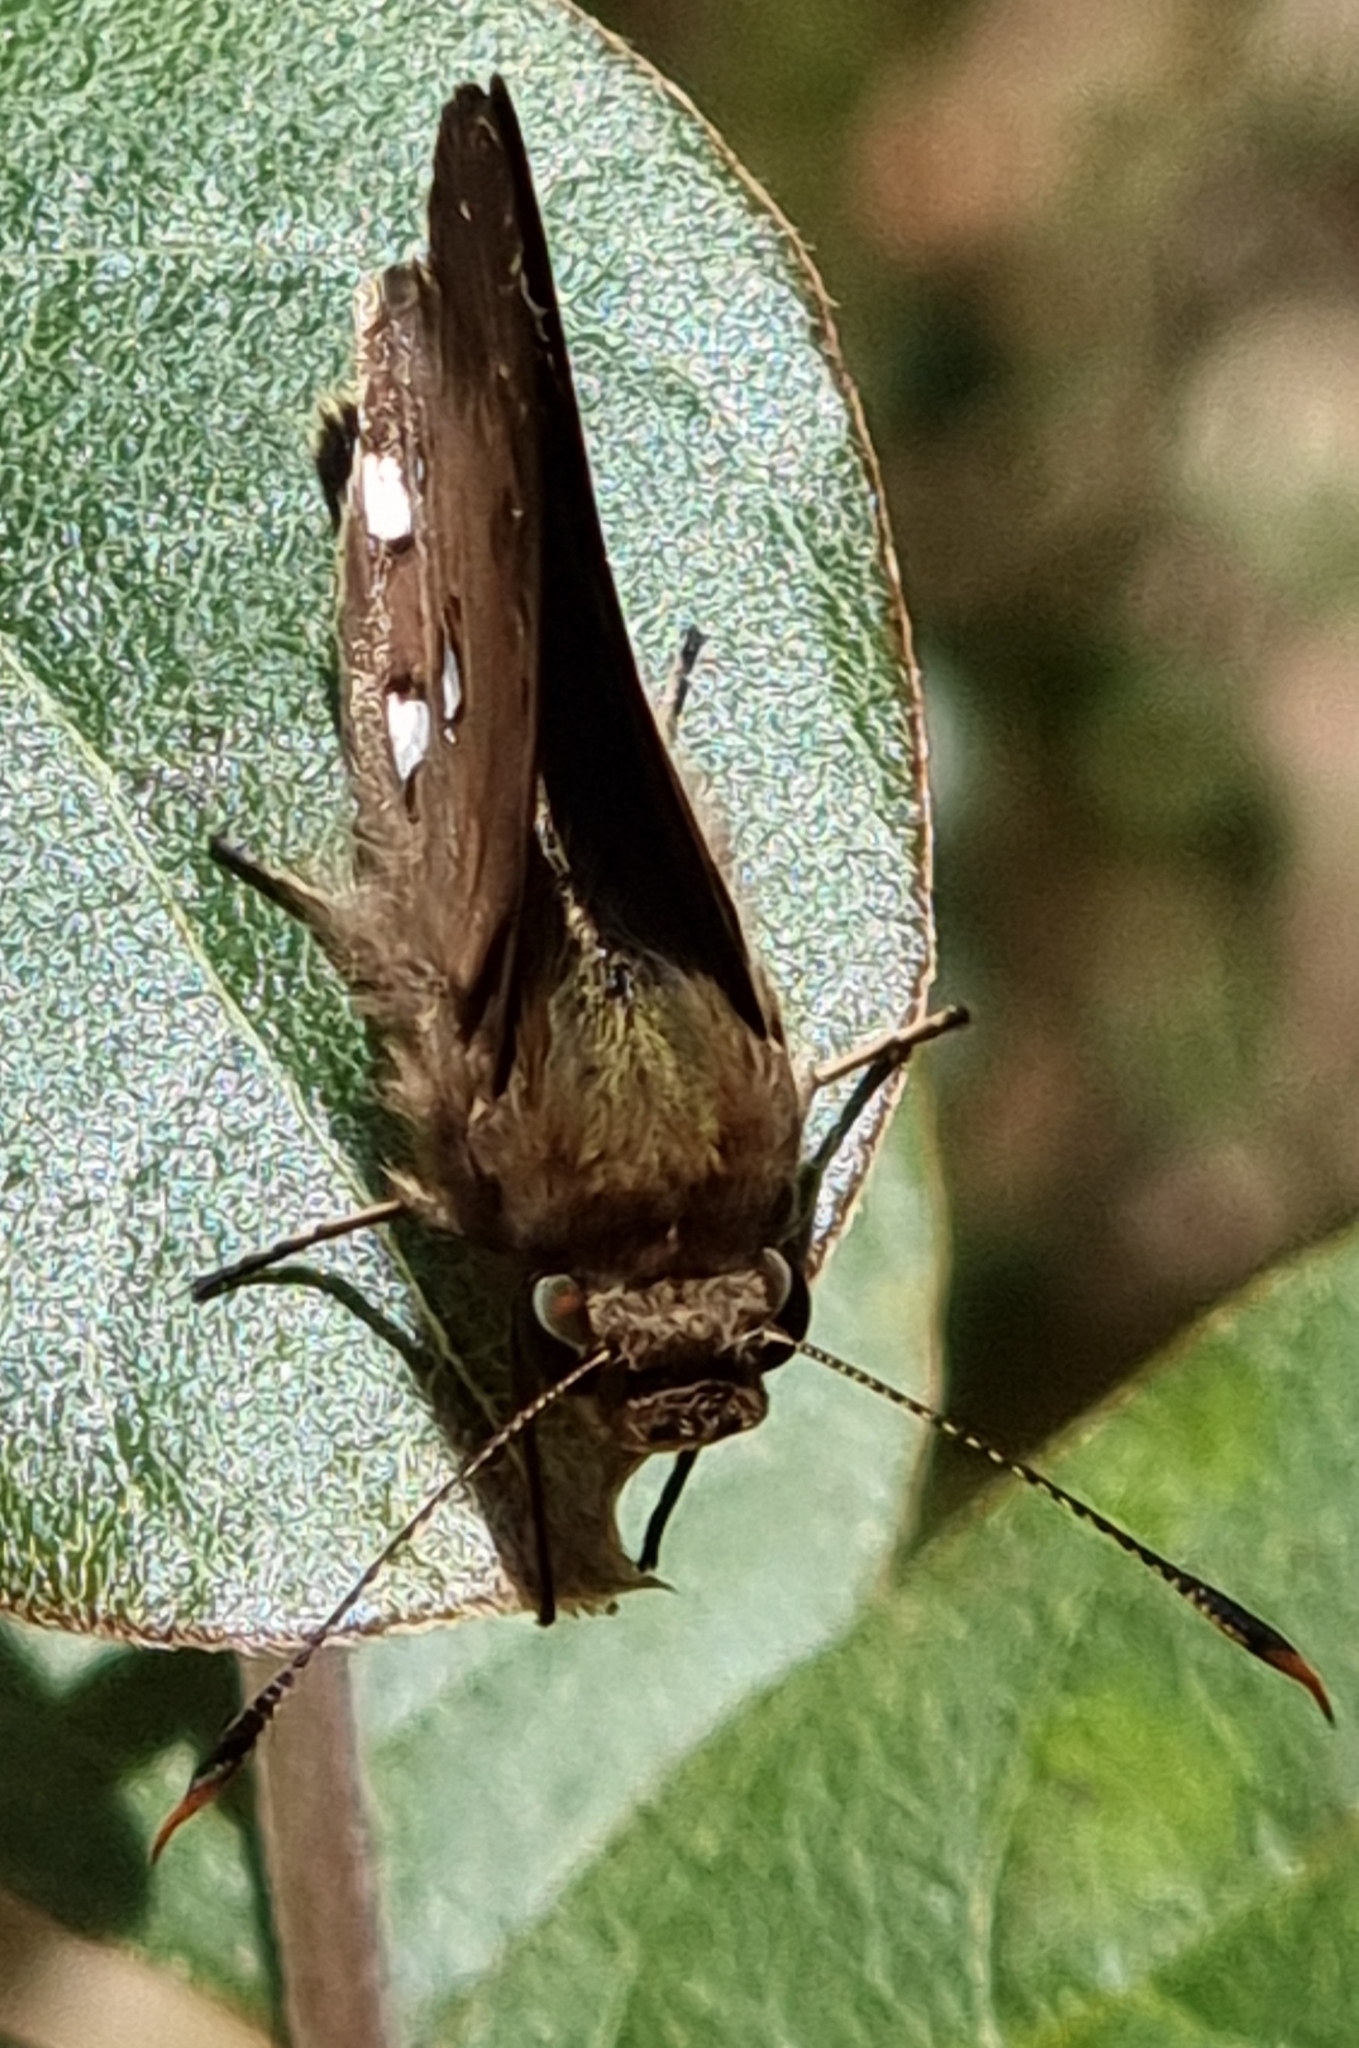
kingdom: Animalia
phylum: Arthropoda
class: Insecta
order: Lepidoptera
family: Hesperiidae
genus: Trapezites
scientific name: Trapezites maheta
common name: Northern silver ochre
